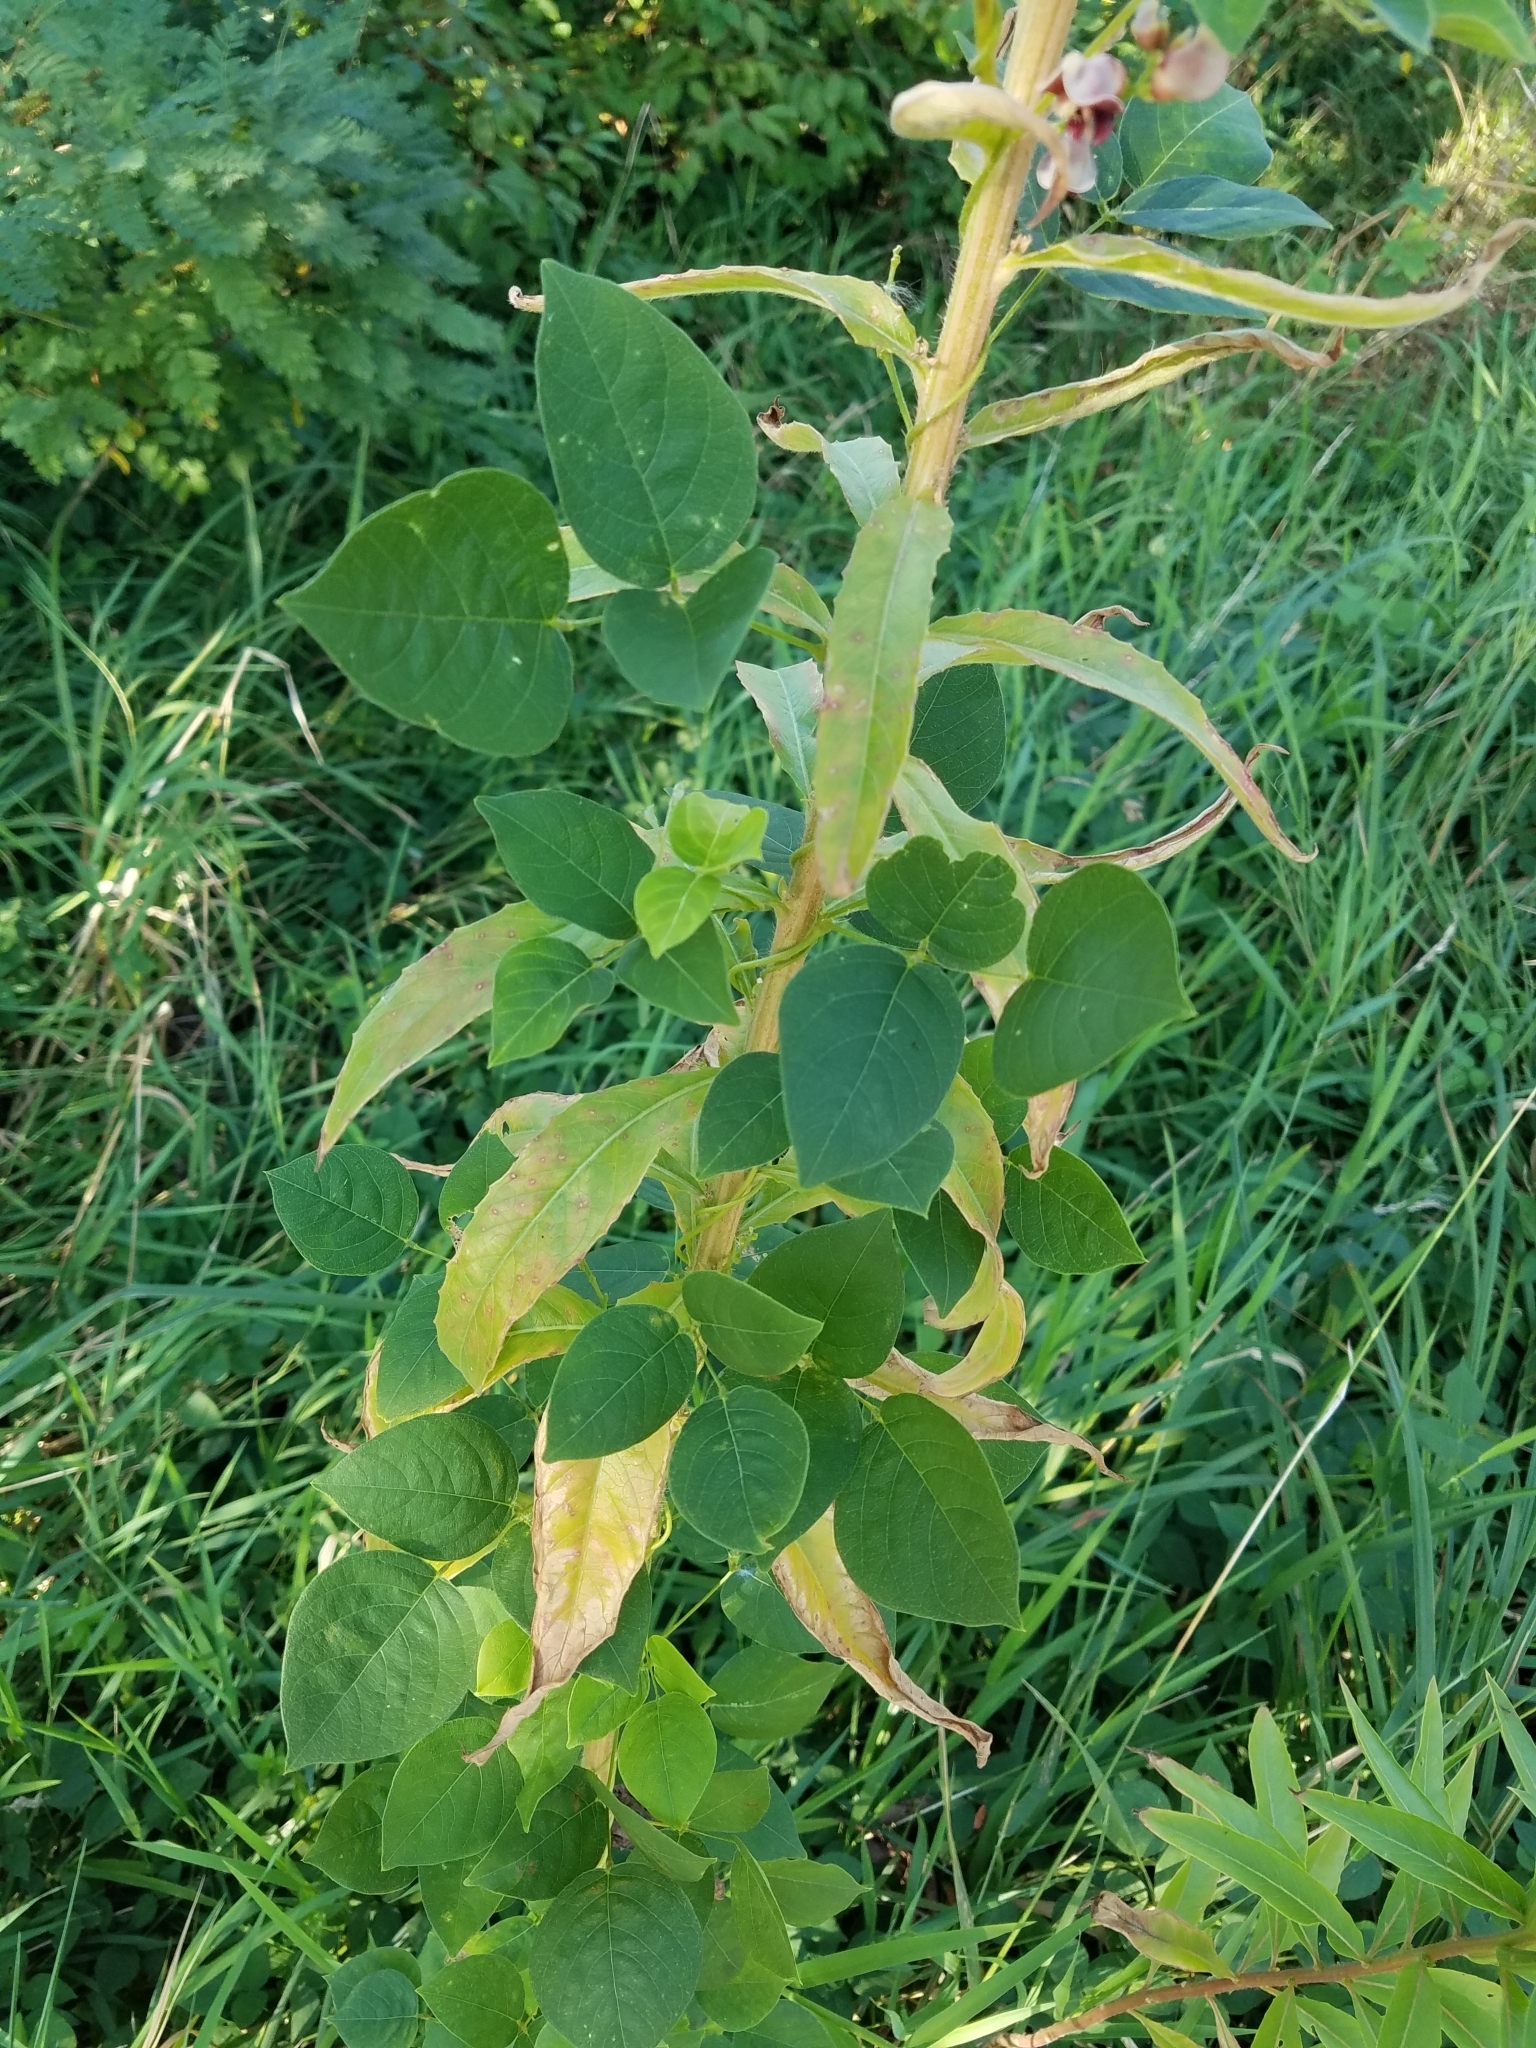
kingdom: Plantae
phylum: Tracheophyta
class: Magnoliopsida
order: Fabales
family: Fabaceae
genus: Apios
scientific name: Apios americana
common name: American potato-bean
